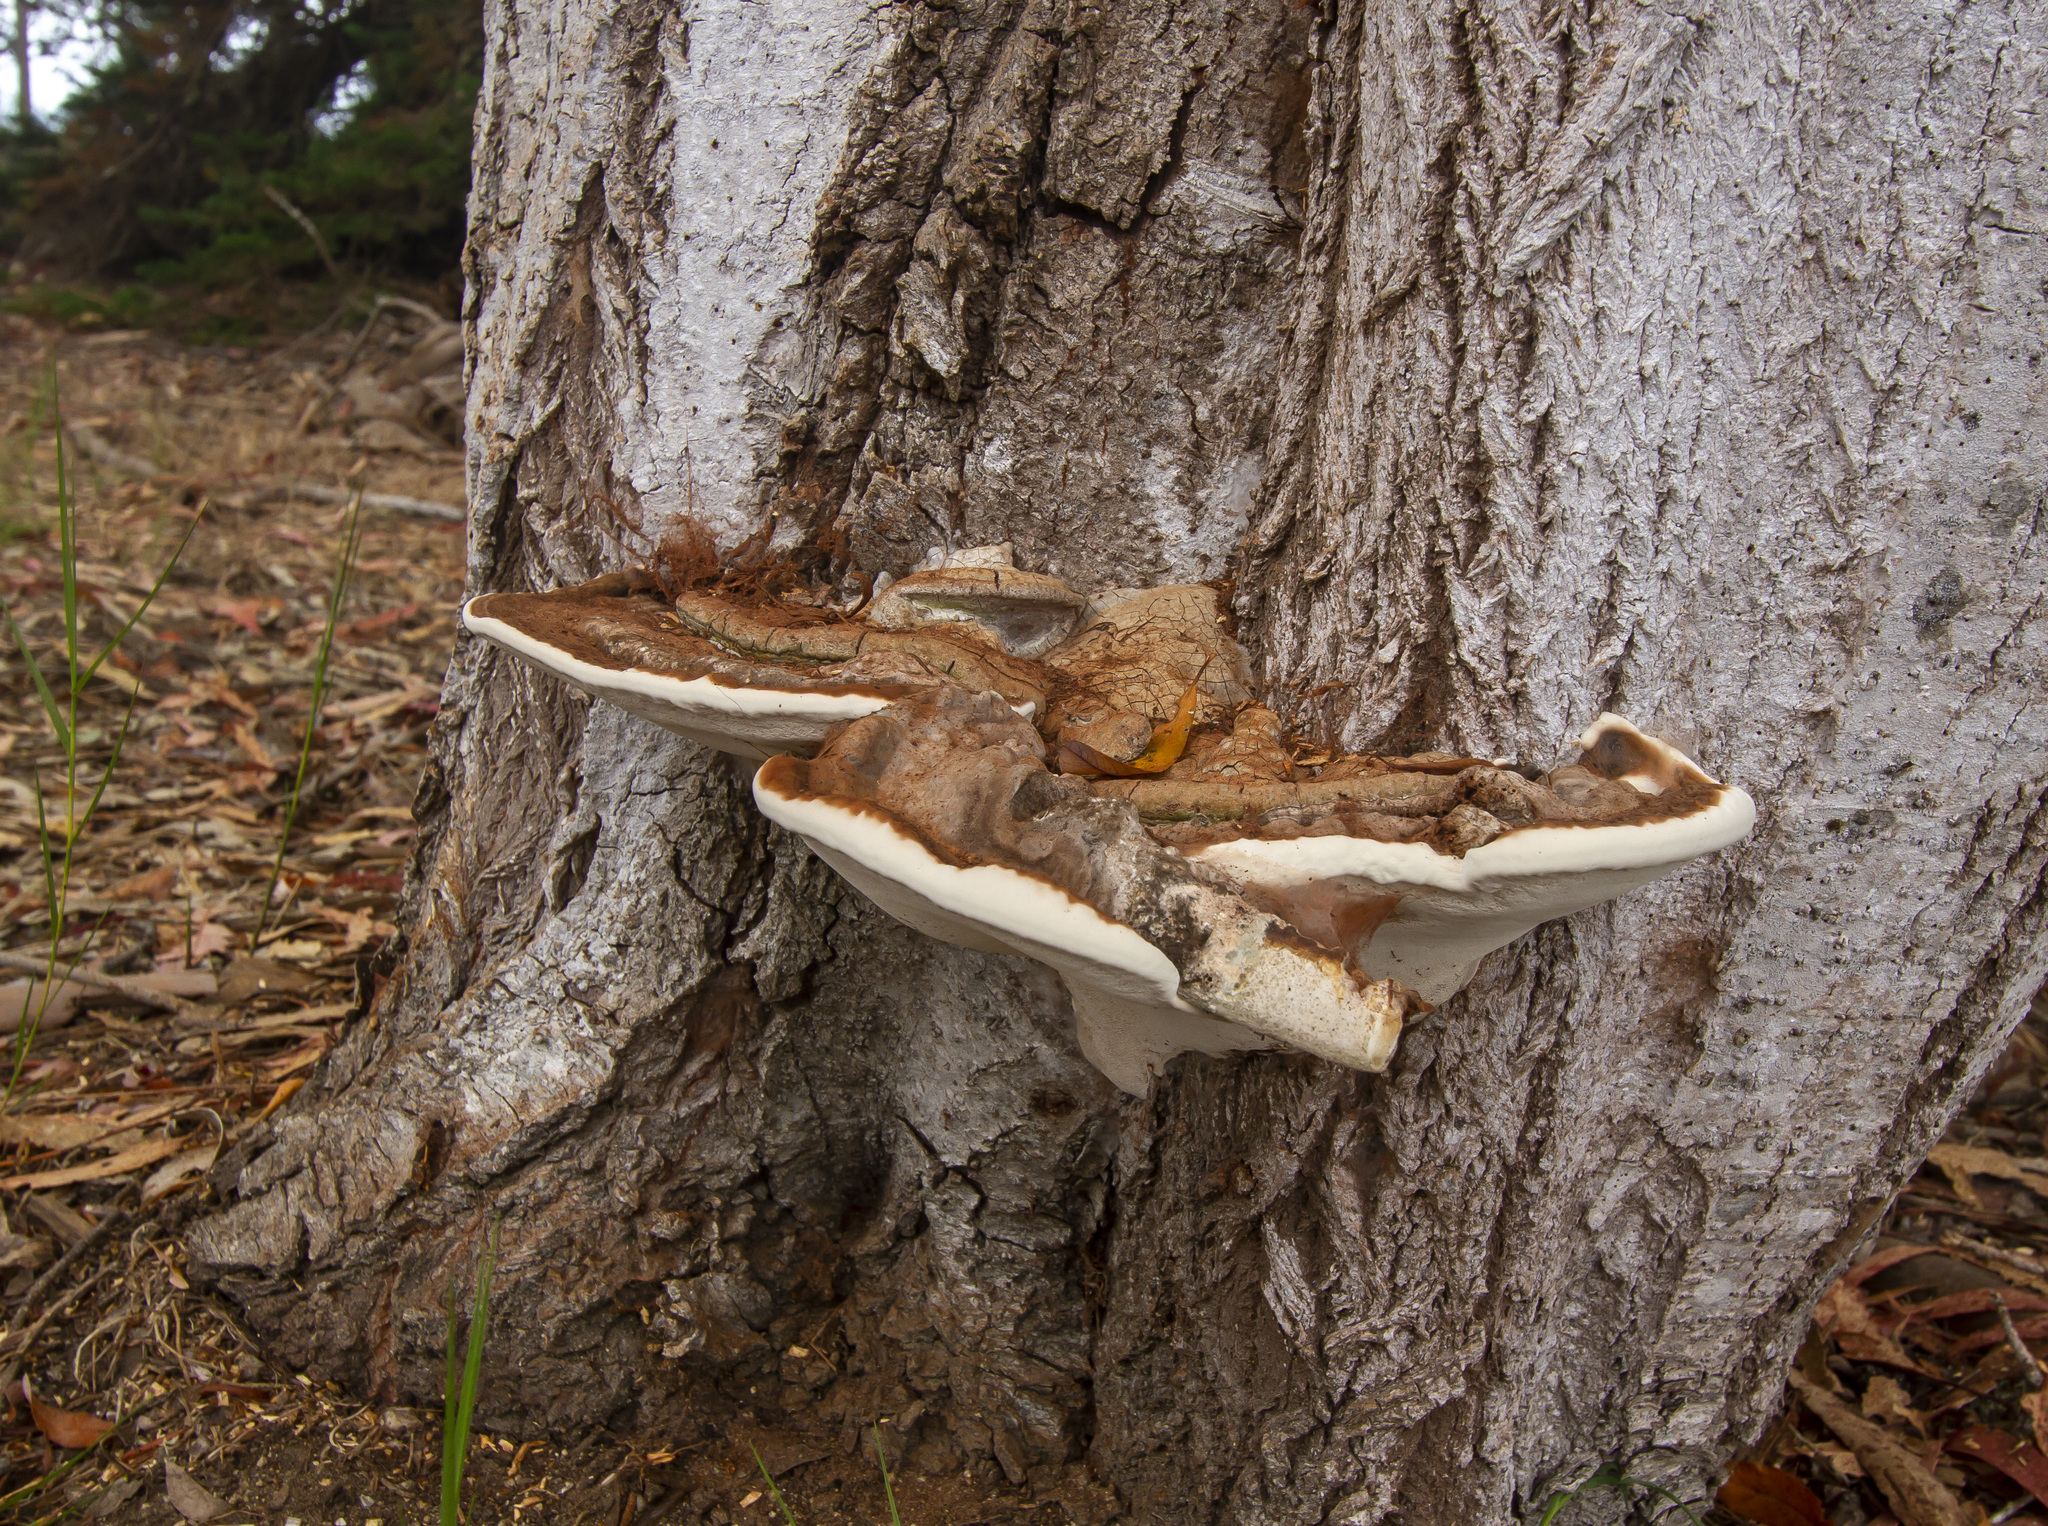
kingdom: Fungi
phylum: Basidiomycota
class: Agaricomycetes
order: Polyporales
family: Polyporaceae
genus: Ganoderma
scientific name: Ganoderma brownii
